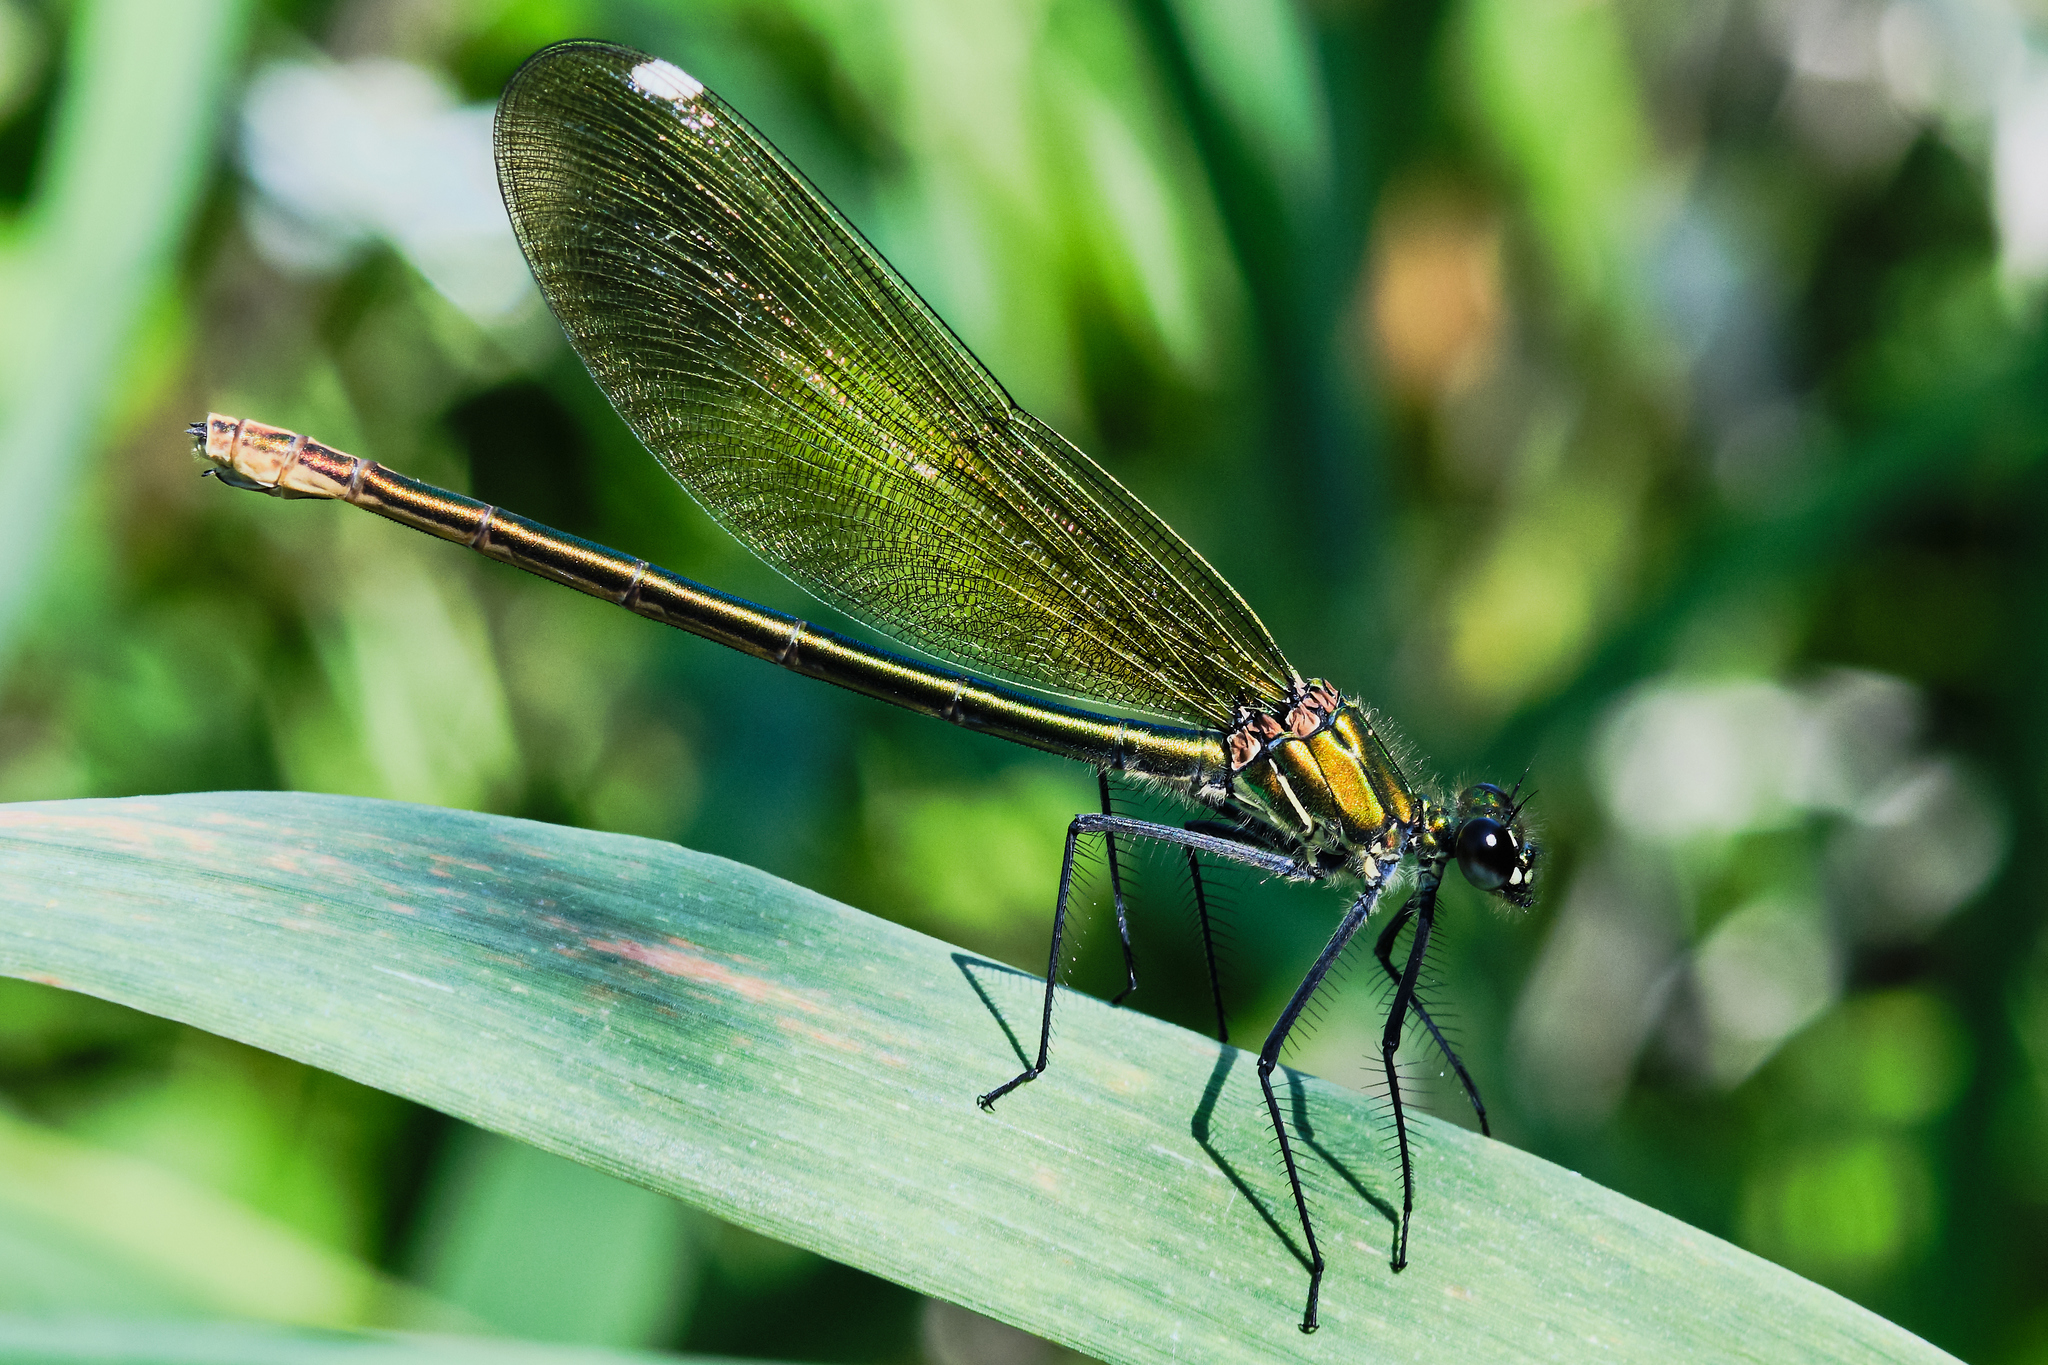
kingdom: Animalia
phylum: Arthropoda
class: Insecta
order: Odonata
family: Calopterygidae
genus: Calopteryx
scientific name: Calopteryx splendens
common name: Banded demoiselle
